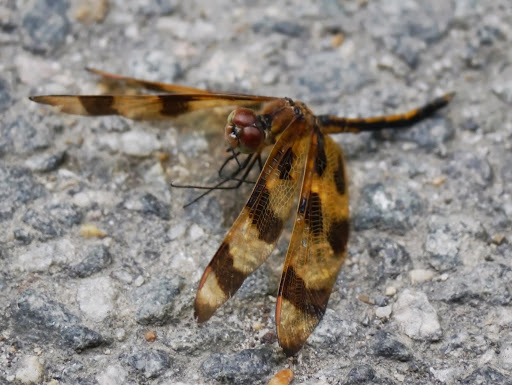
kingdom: Animalia
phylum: Arthropoda
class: Insecta
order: Odonata
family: Libellulidae
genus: Celithemis
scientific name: Celithemis eponina
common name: Halloween pennant
